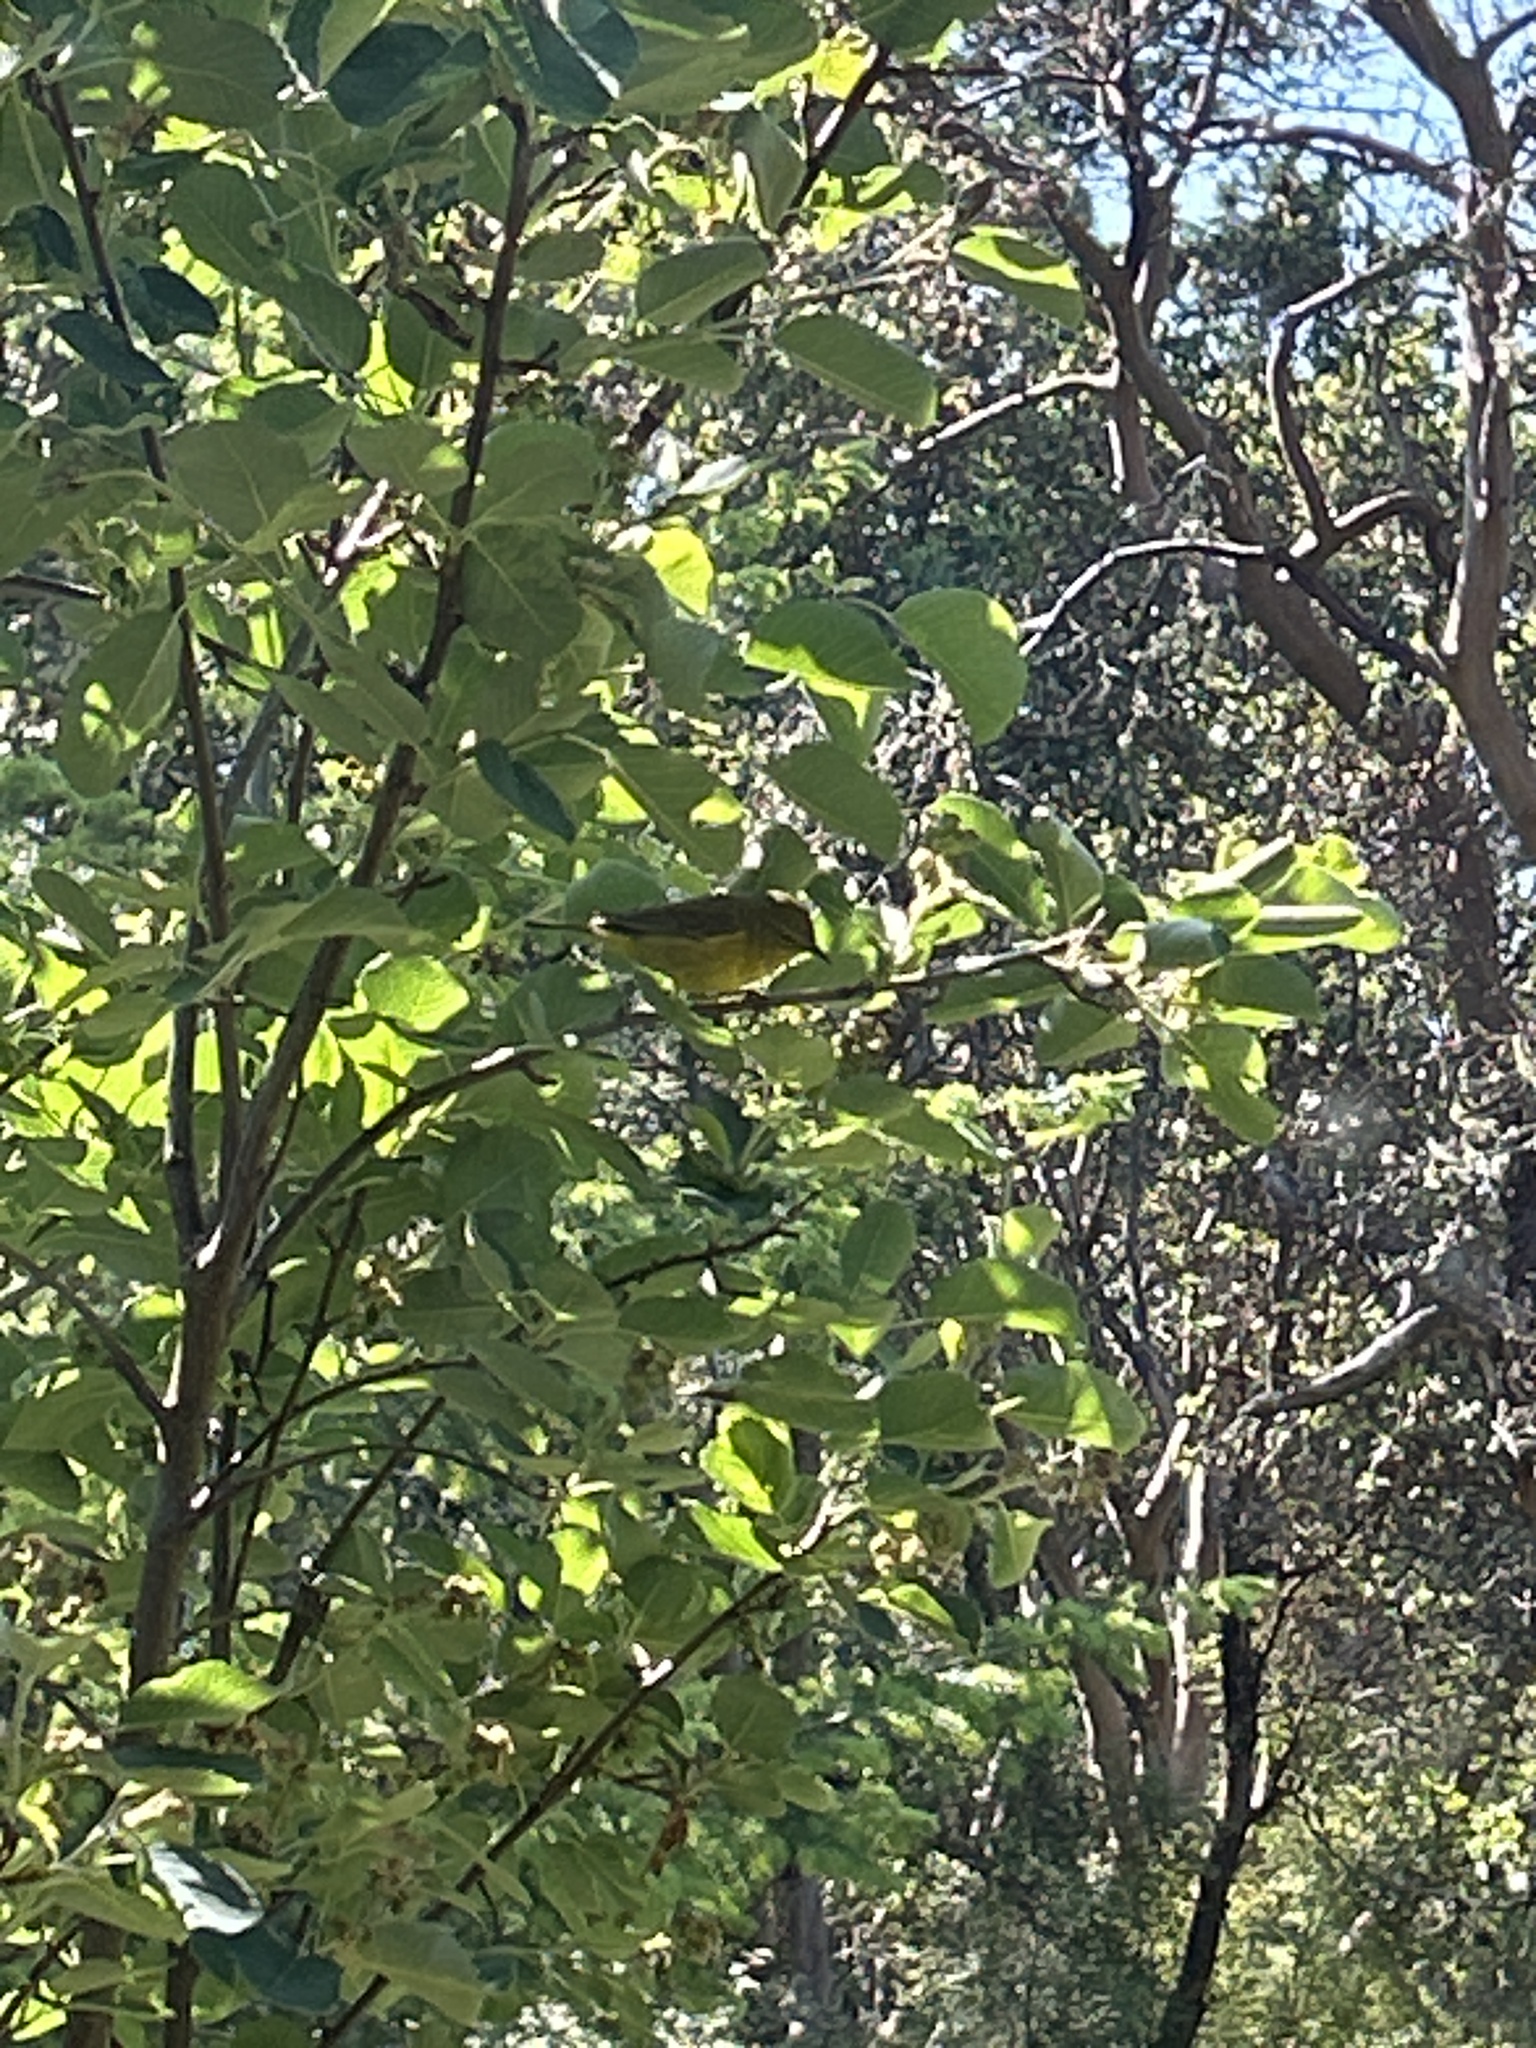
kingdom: Animalia
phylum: Chordata
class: Aves
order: Passeriformes
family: Parulidae
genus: Leiothlypis
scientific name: Leiothlypis celata
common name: Orange-crowned warbler
